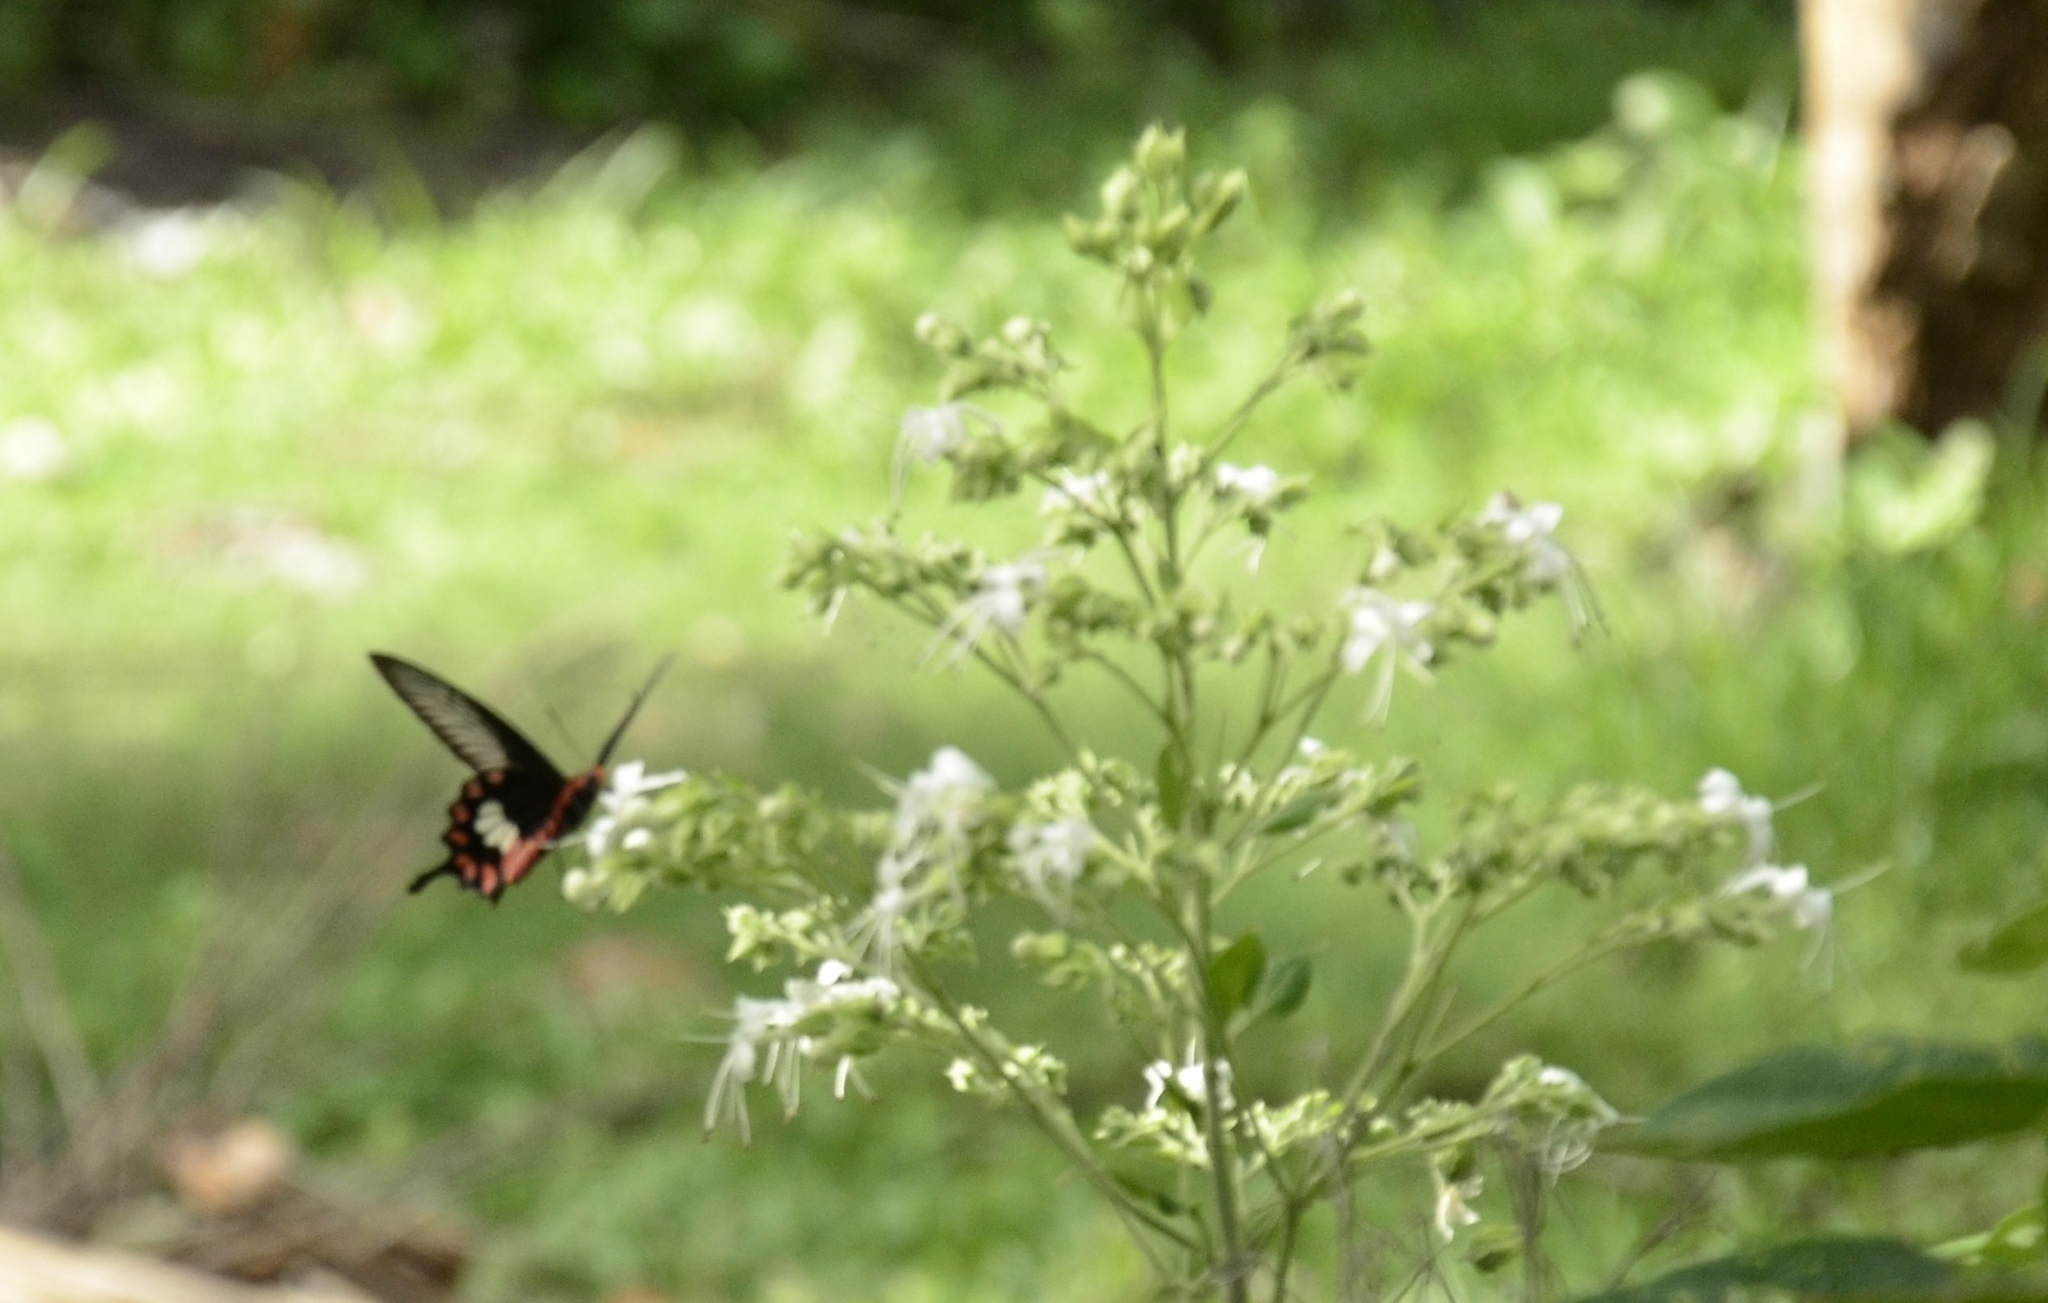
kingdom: Animalia
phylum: Arthropoda
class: Insecta
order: Lepidoptera
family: Papilionidae
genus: Pachliopta
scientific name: Pachliopta aristolochiae
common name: Common rose
